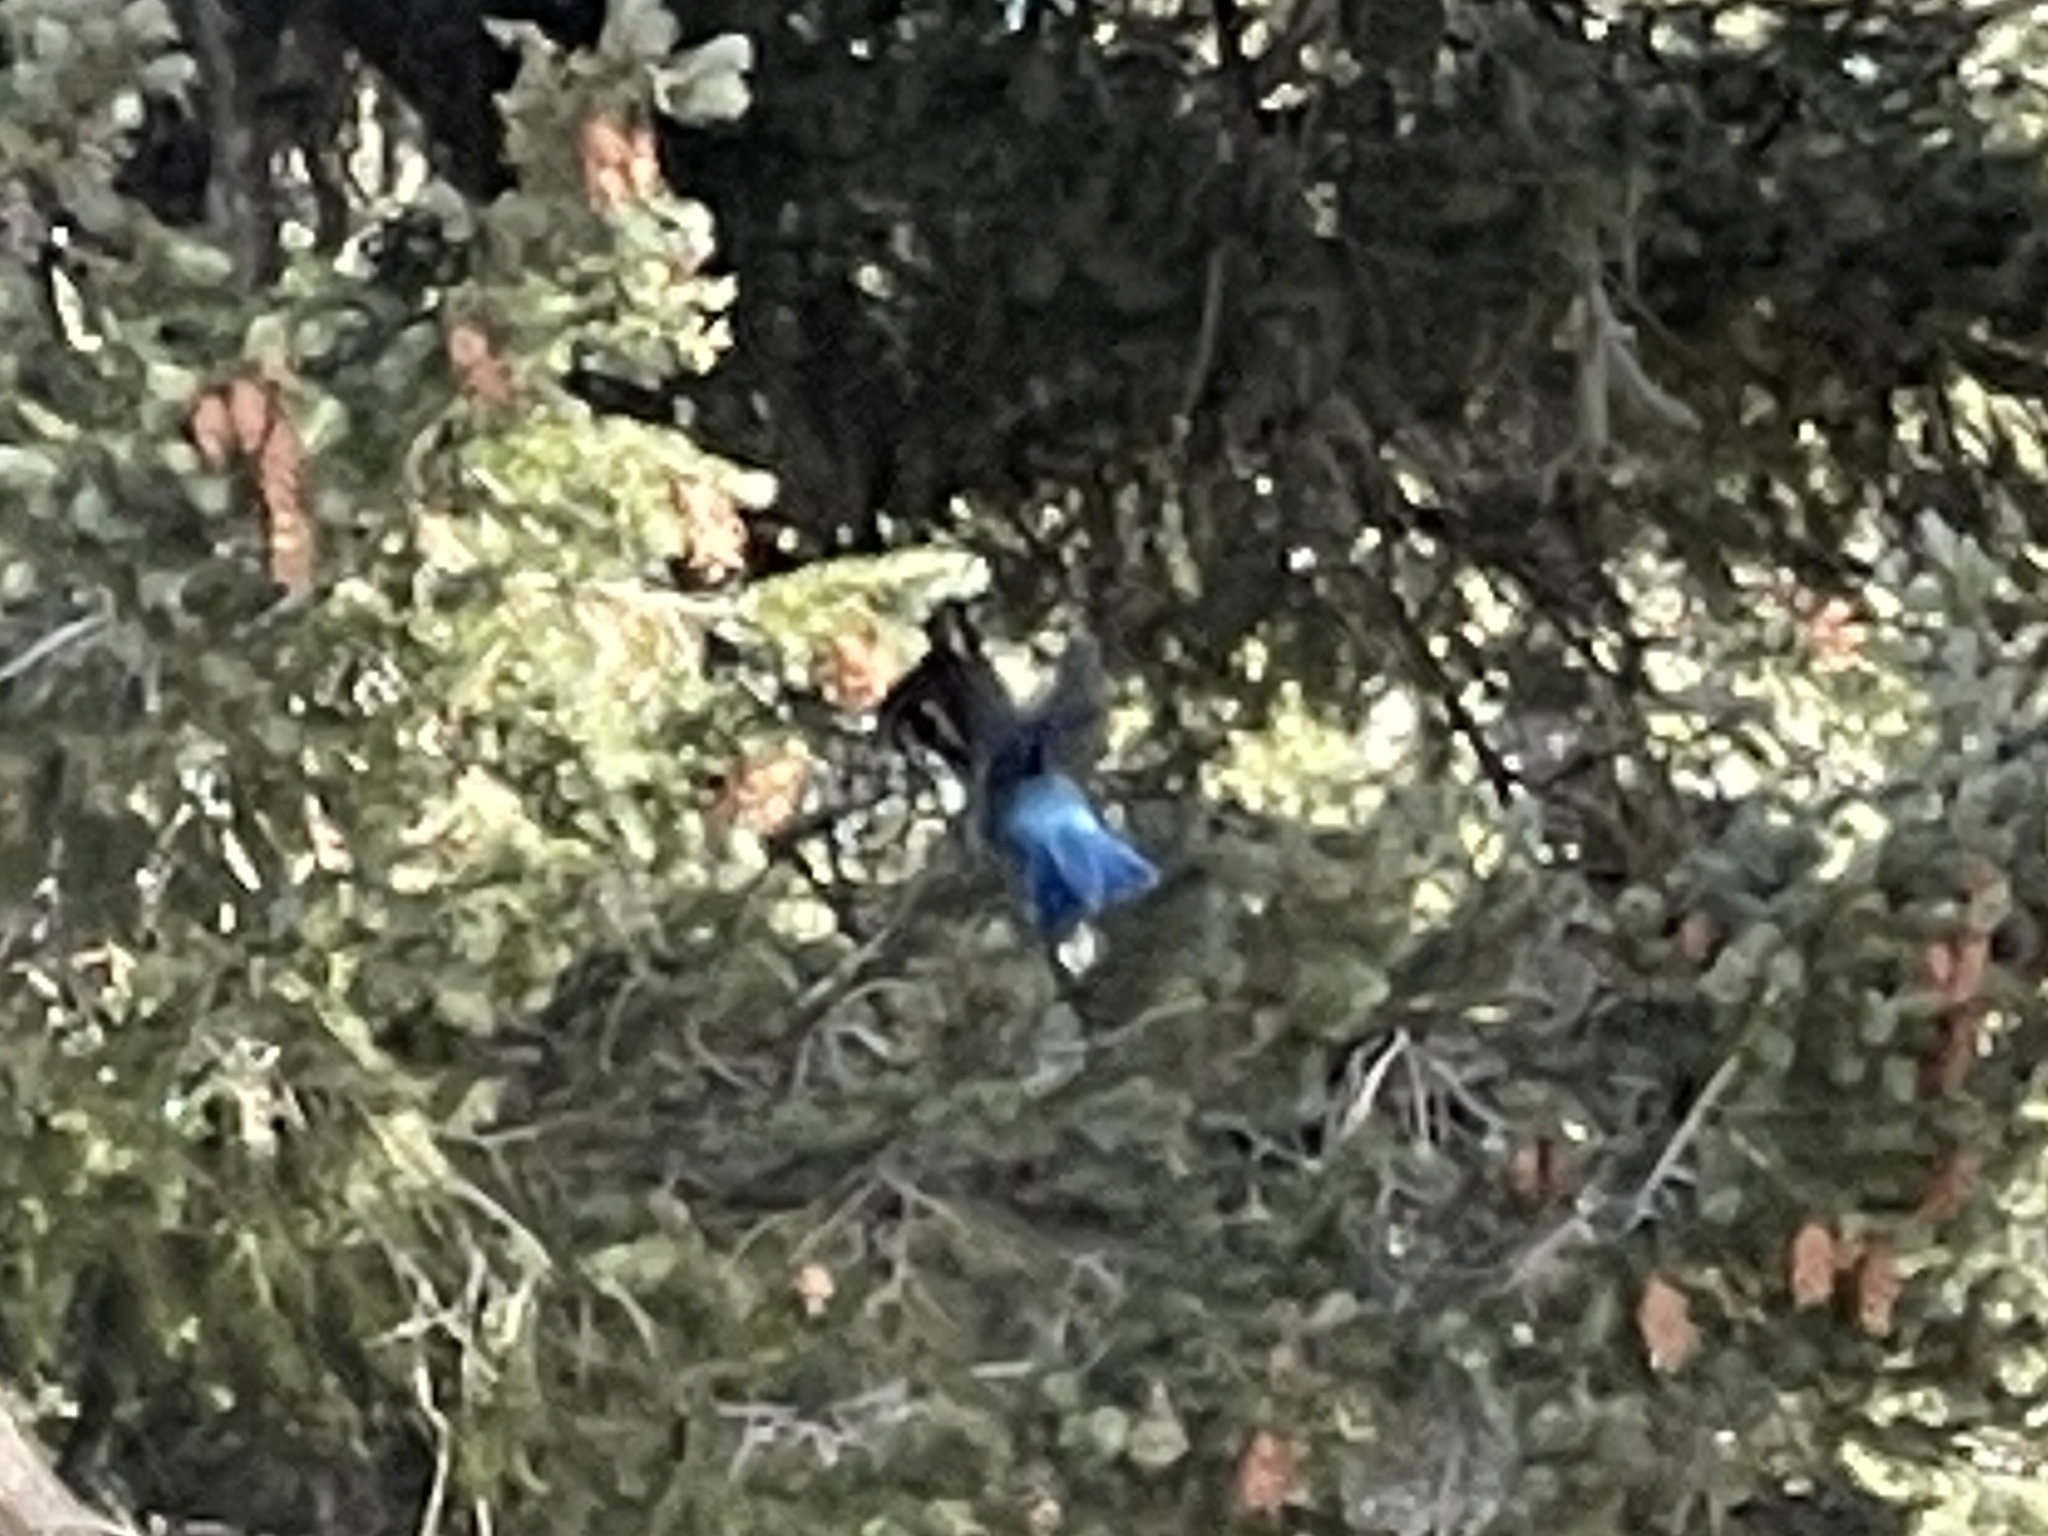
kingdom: Animalia
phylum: Chordata
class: Aves
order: Passeriformes
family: Corvidae
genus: Cyanocitta
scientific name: Cyanocitta stelleri
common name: Steller's jay
